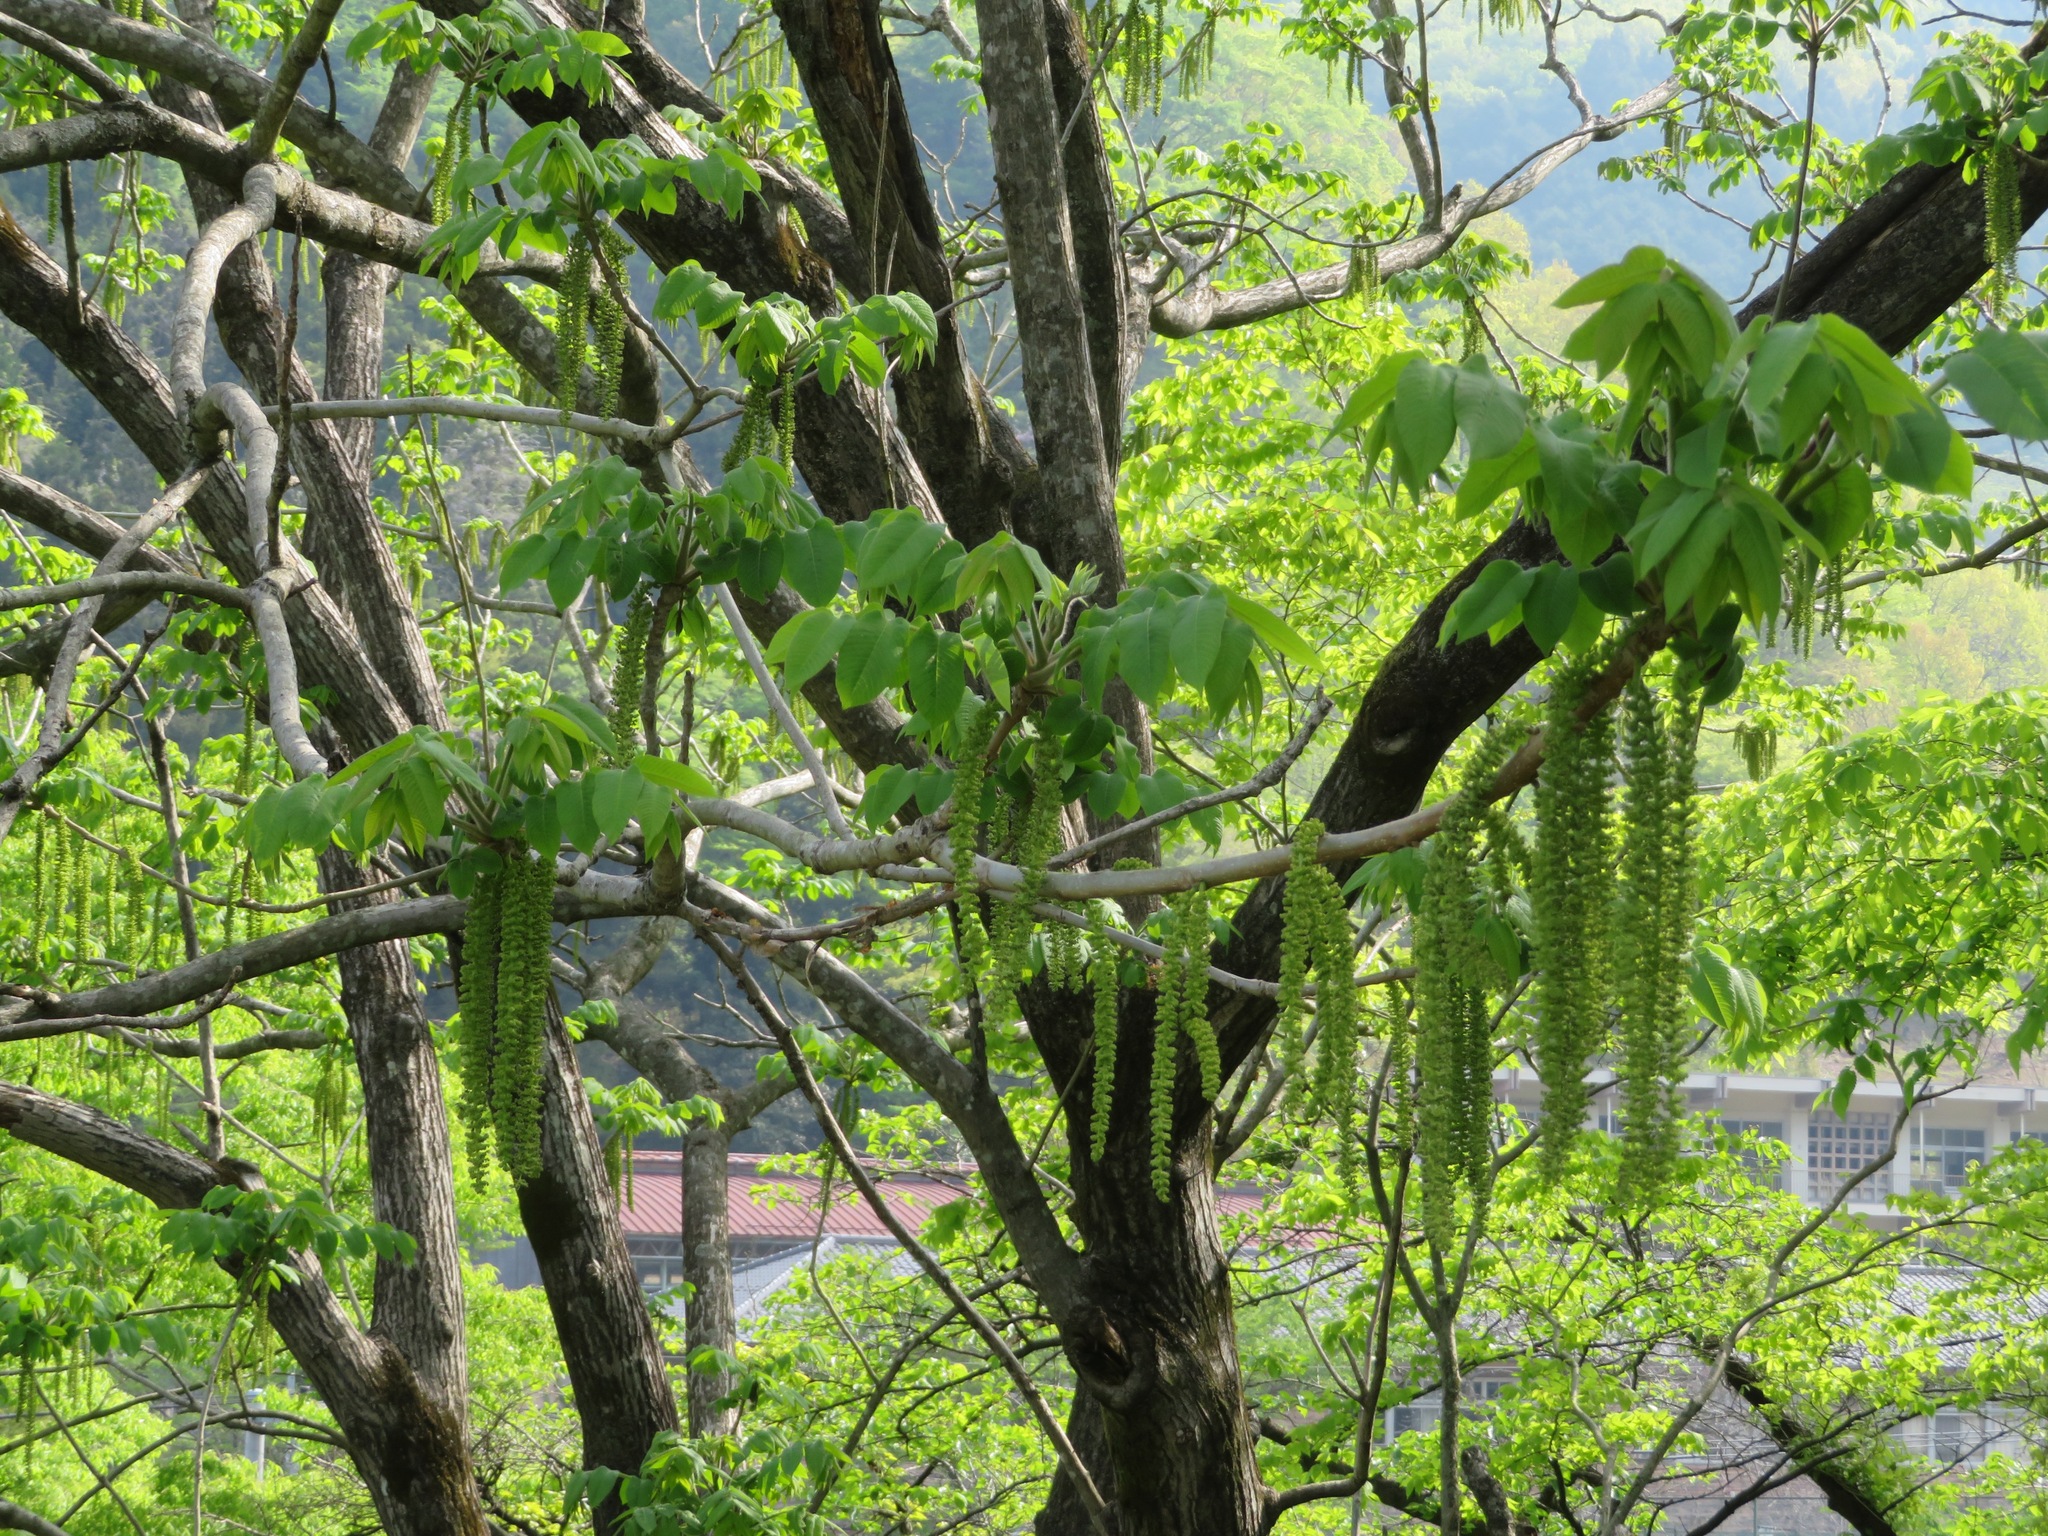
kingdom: Plantae
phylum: Tracheophyta
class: Magnoliopsida
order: Fagales
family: Juglandaceae
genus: Juglans
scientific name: Juglans ailantifolia
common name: Japanese walnut
